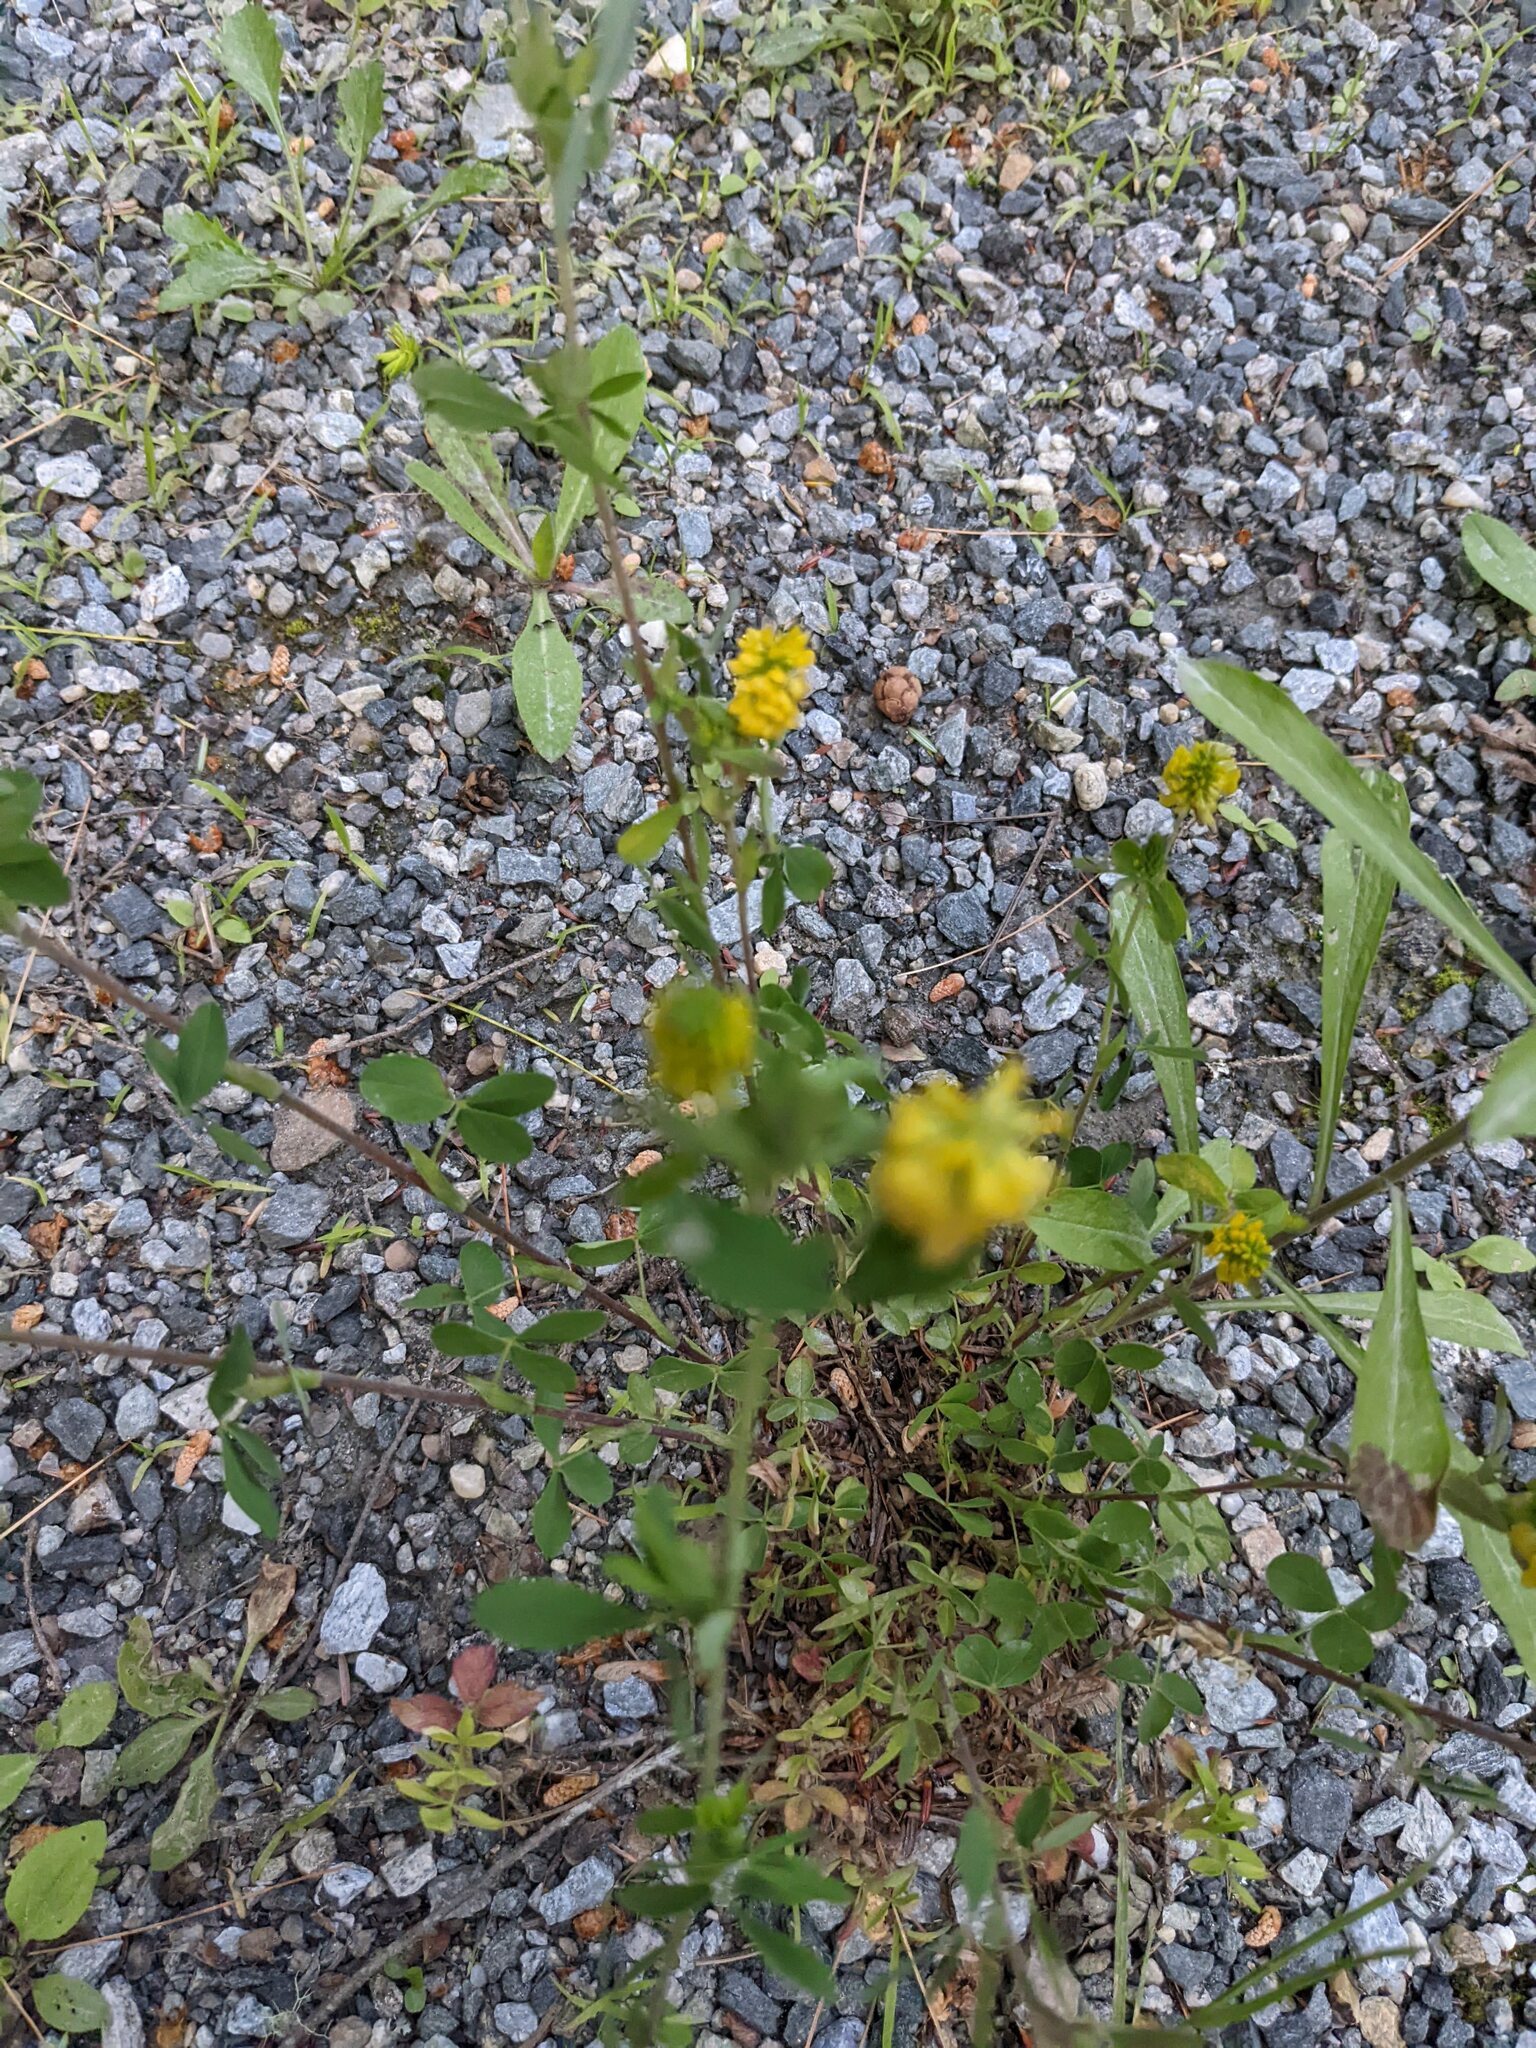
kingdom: Plantae
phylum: Tracheophyta
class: Magnoliopsida
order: Fabales
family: Fabaceae
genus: Trifolium
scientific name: Trifolium aureum
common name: Golden clover
